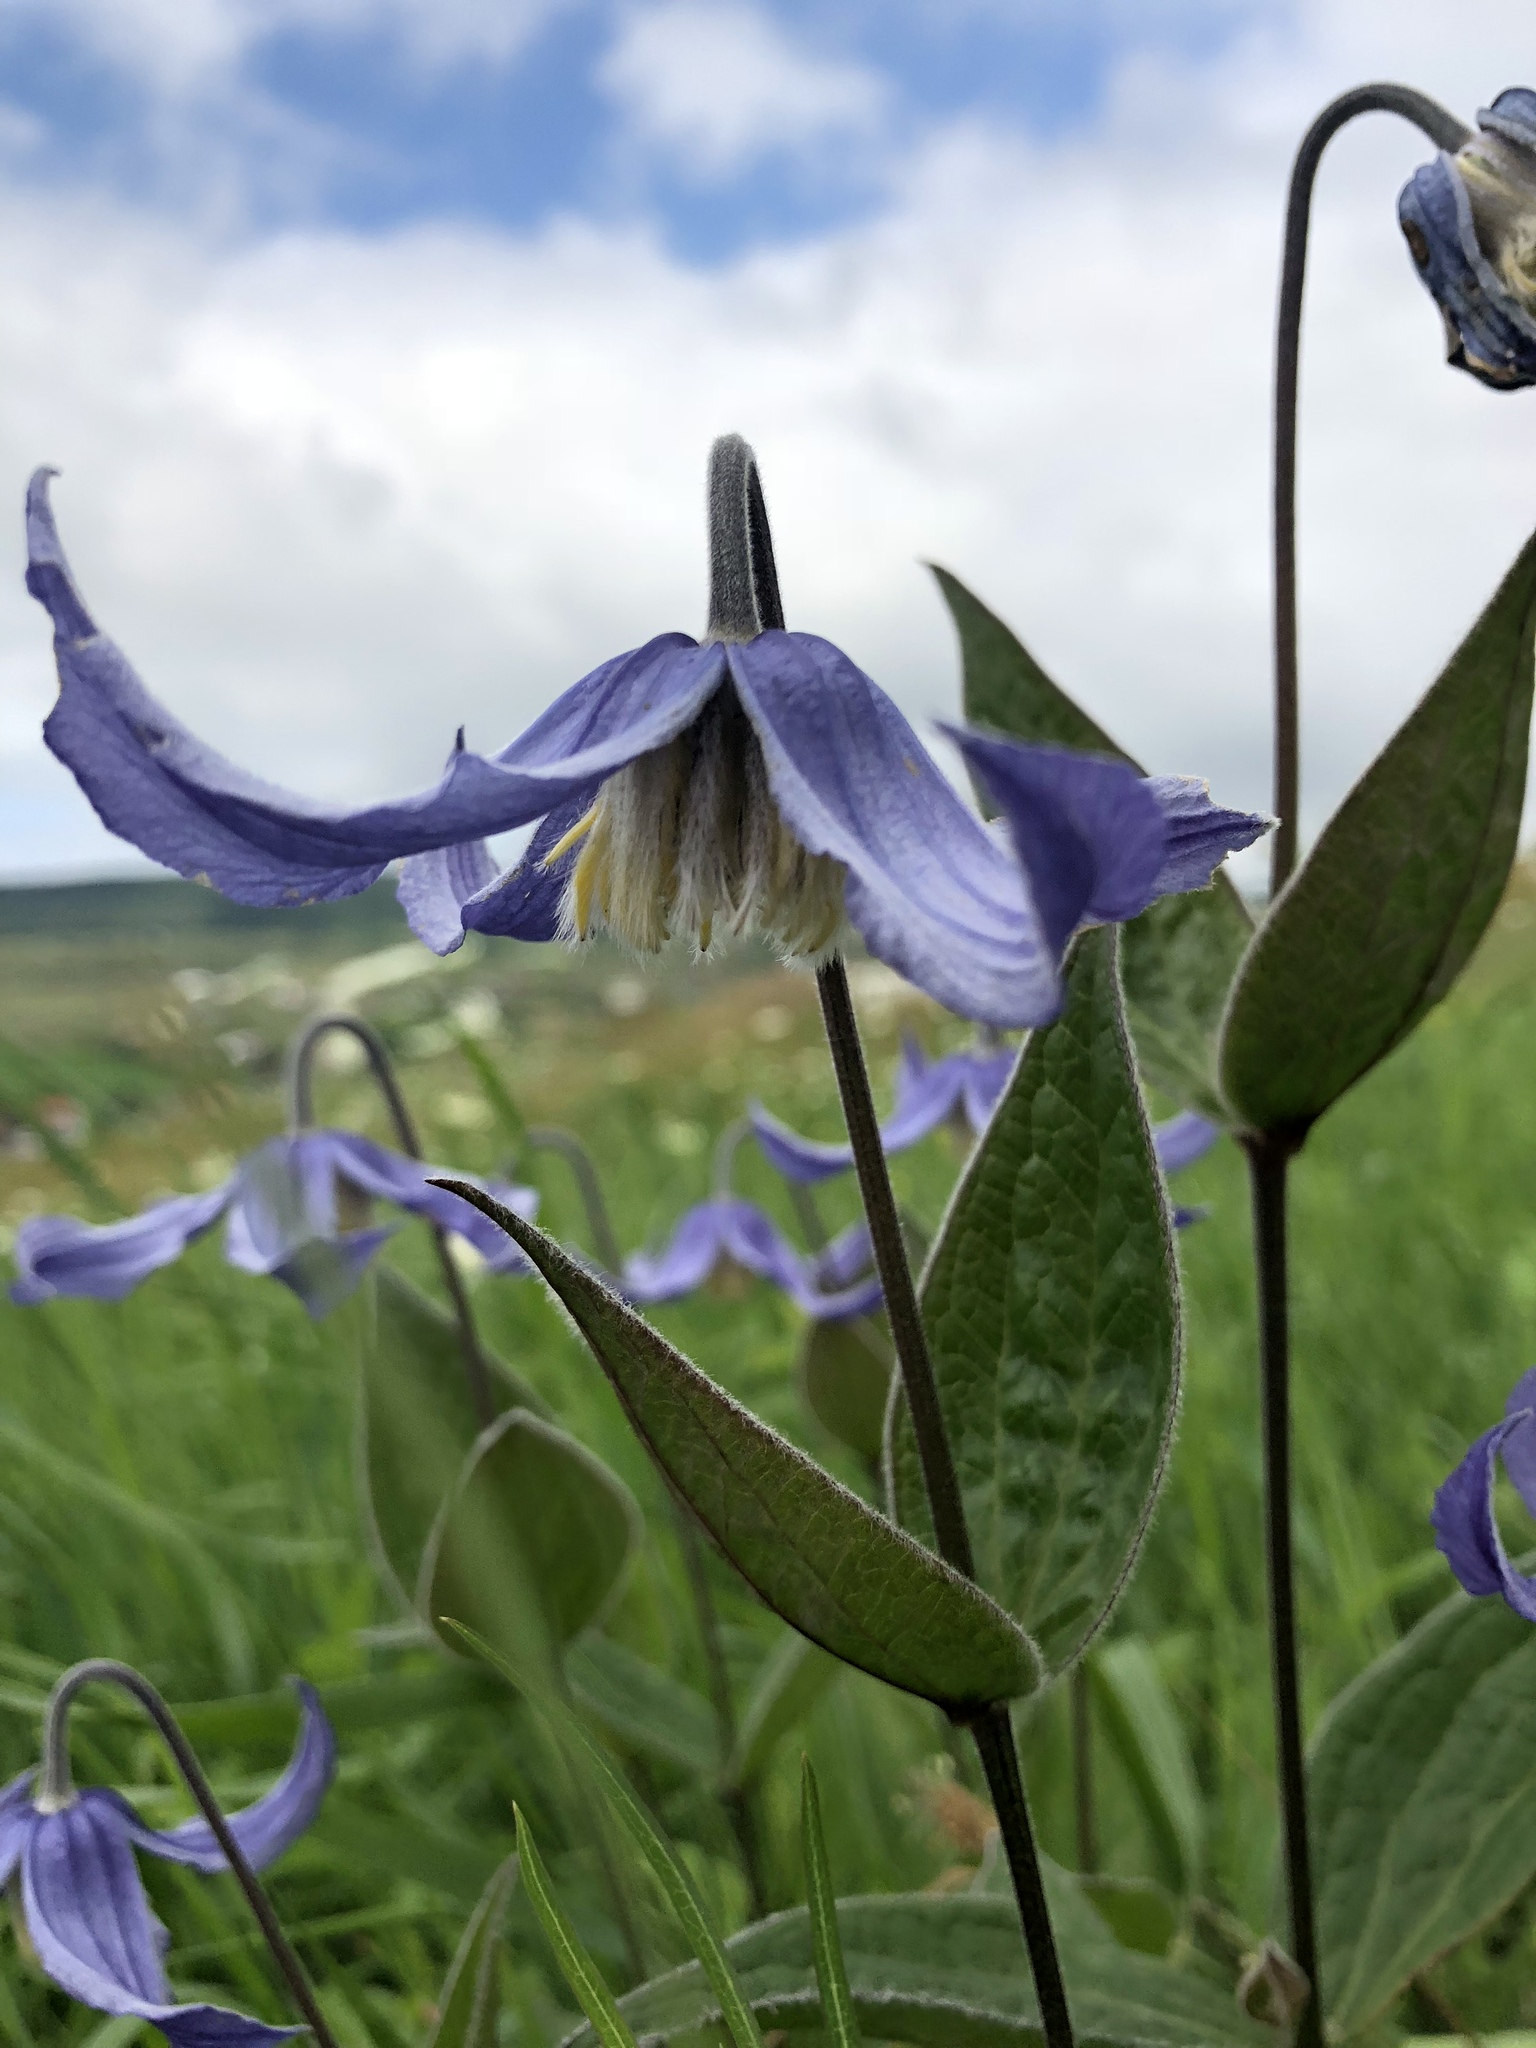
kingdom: Plantae
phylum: Tracheophyta
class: Magnoliopsida
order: Ranunculales
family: Ranunculaceae
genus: Clematis
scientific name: Clematis integrifolia
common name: Solitary clematis
